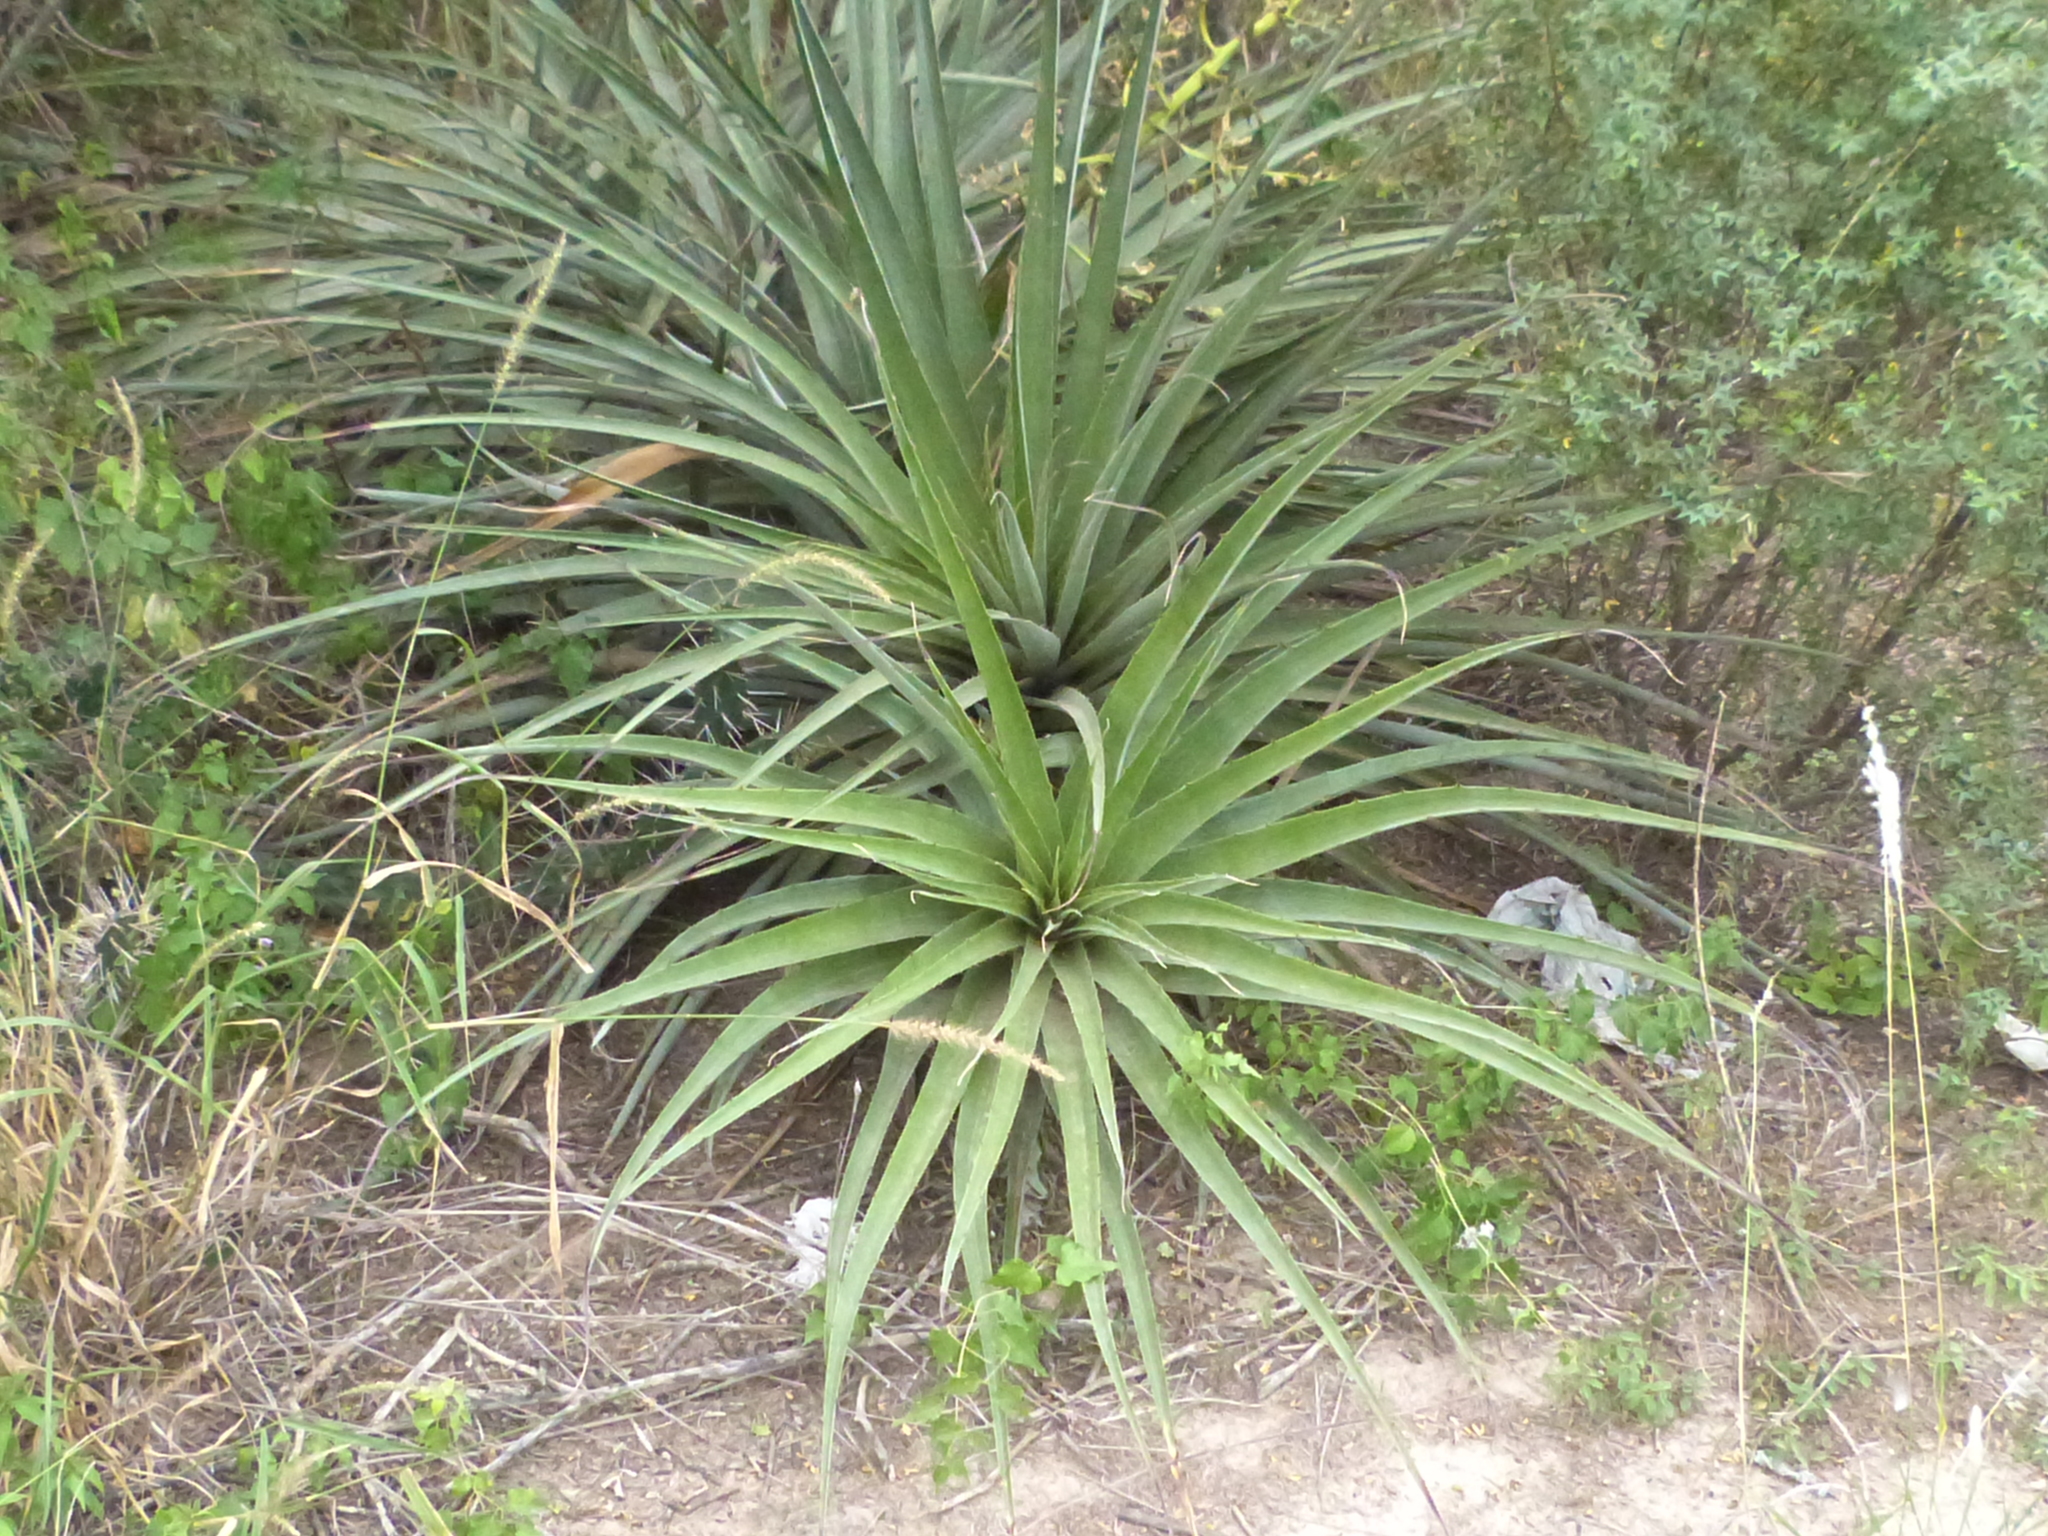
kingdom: Plantae
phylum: Tracheophyta
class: Liliopsida
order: Poales
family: Bromeliaceae
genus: Bromelia
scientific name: Bromelia hieronymi
